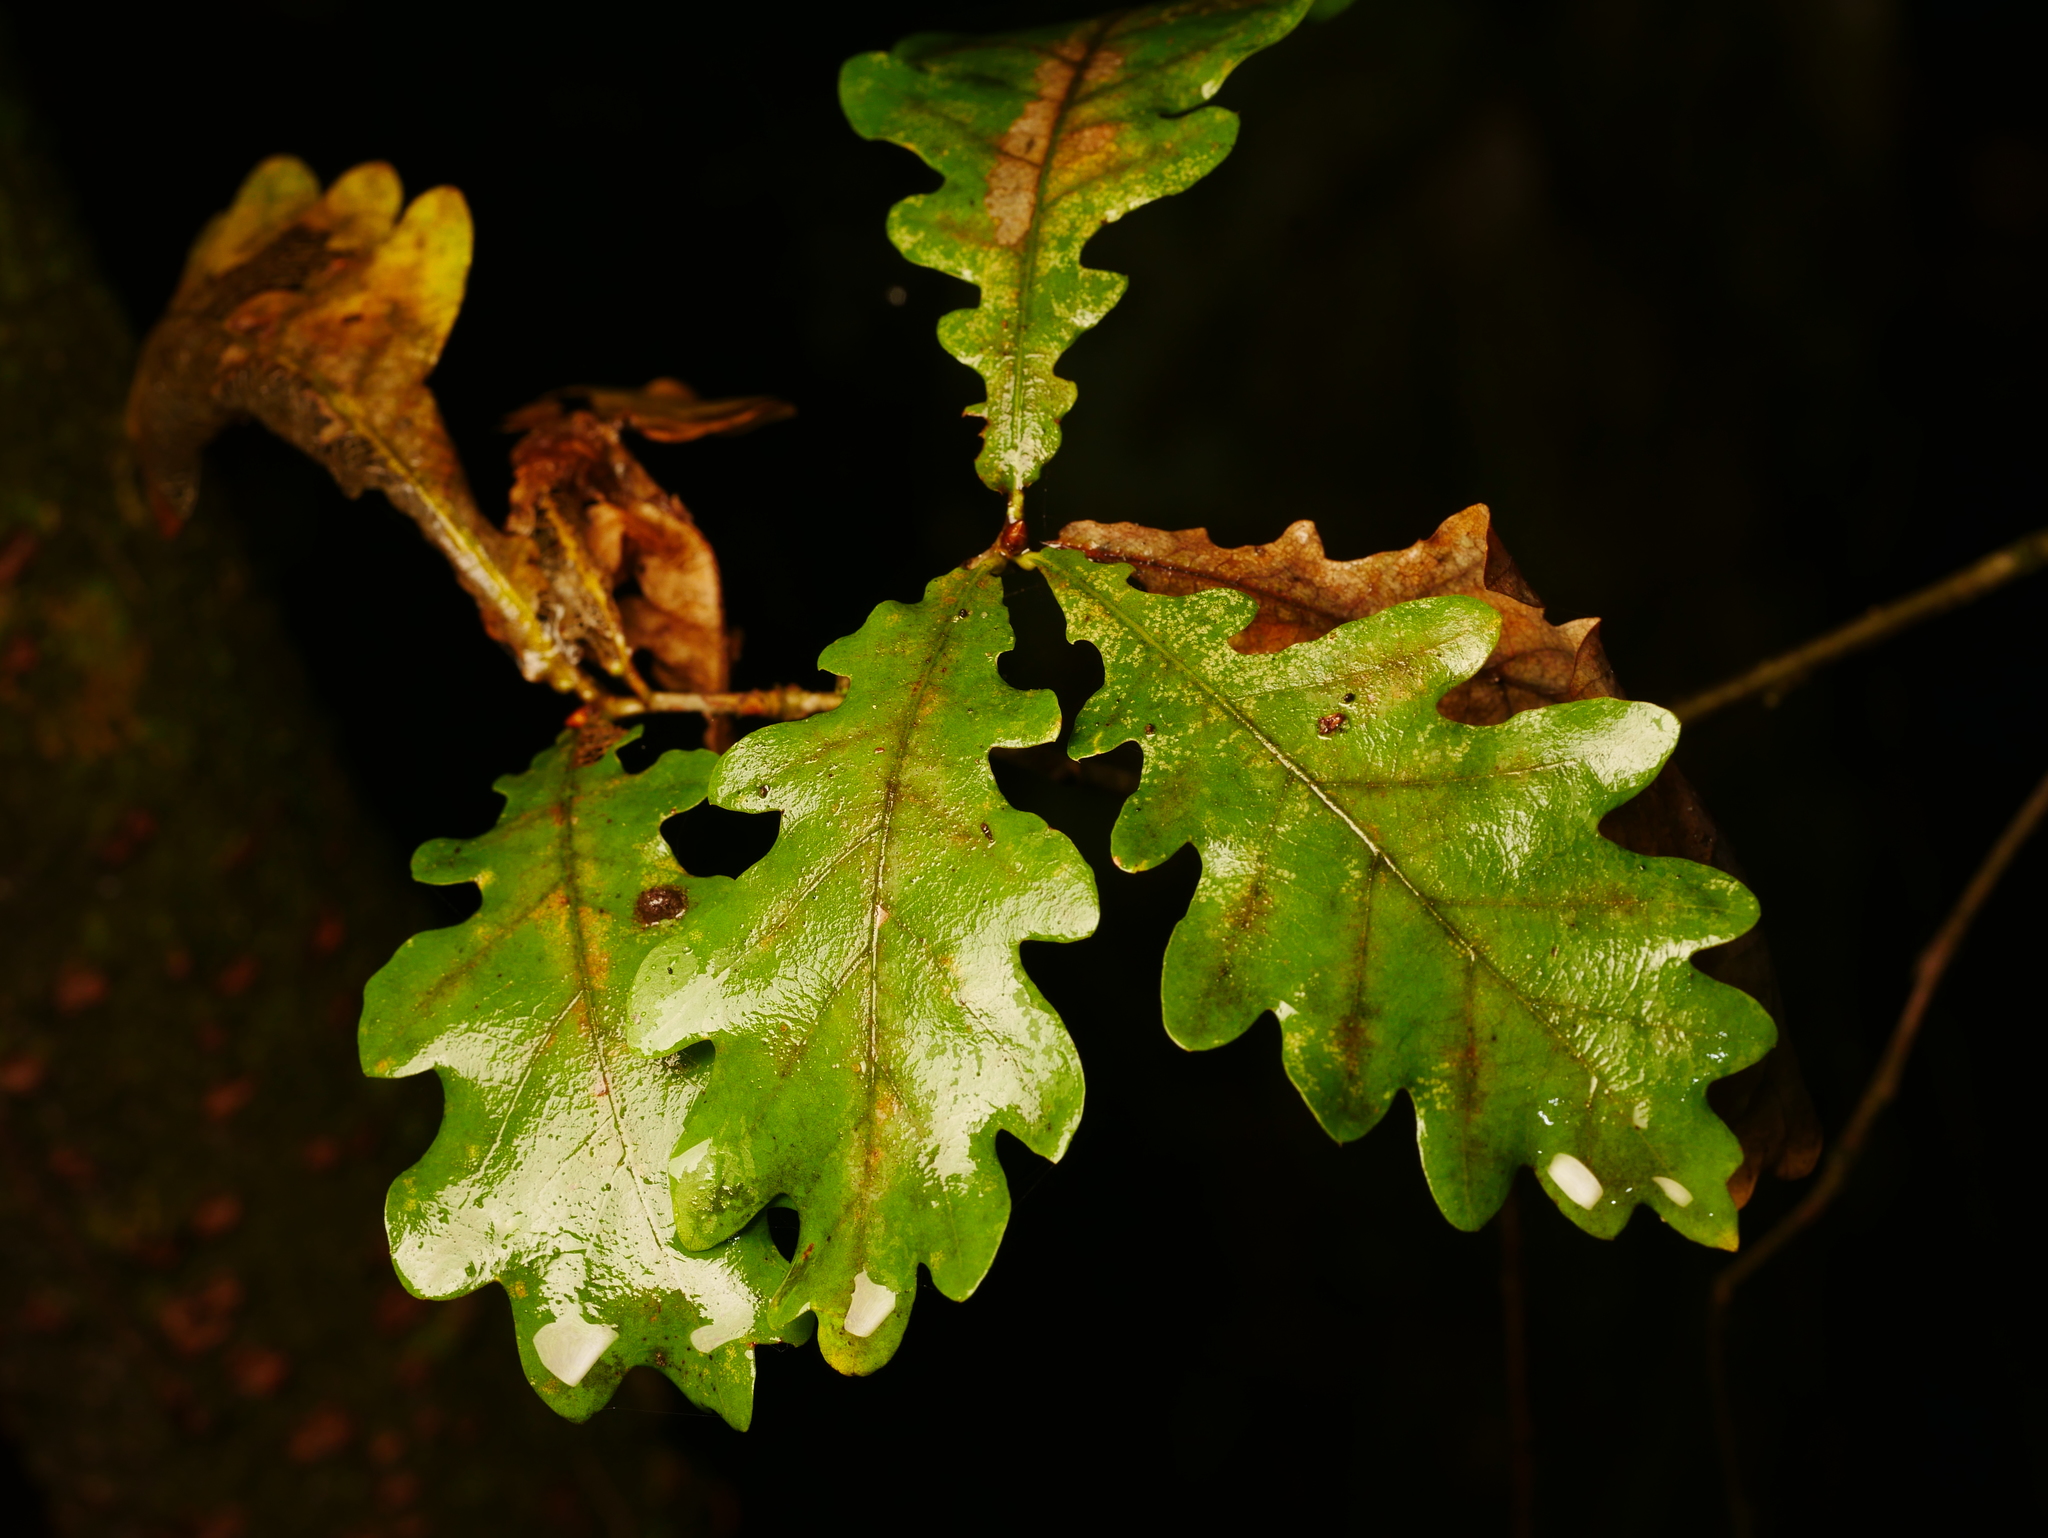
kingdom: Plantae
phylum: Tracheophyta
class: Magnoliopsida
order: Fagales
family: Fagaceae
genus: Quercus
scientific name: Quercus robur
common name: Pedunculate oak
